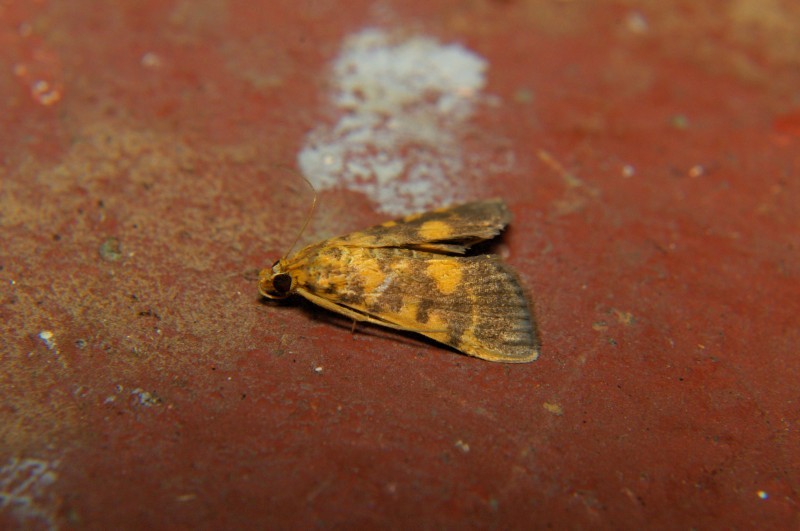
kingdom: Animalia
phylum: Arthropoda
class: Insecta
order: Lepidoptera
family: Crambidae
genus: Omiodes
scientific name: Omiodes diemenalis
